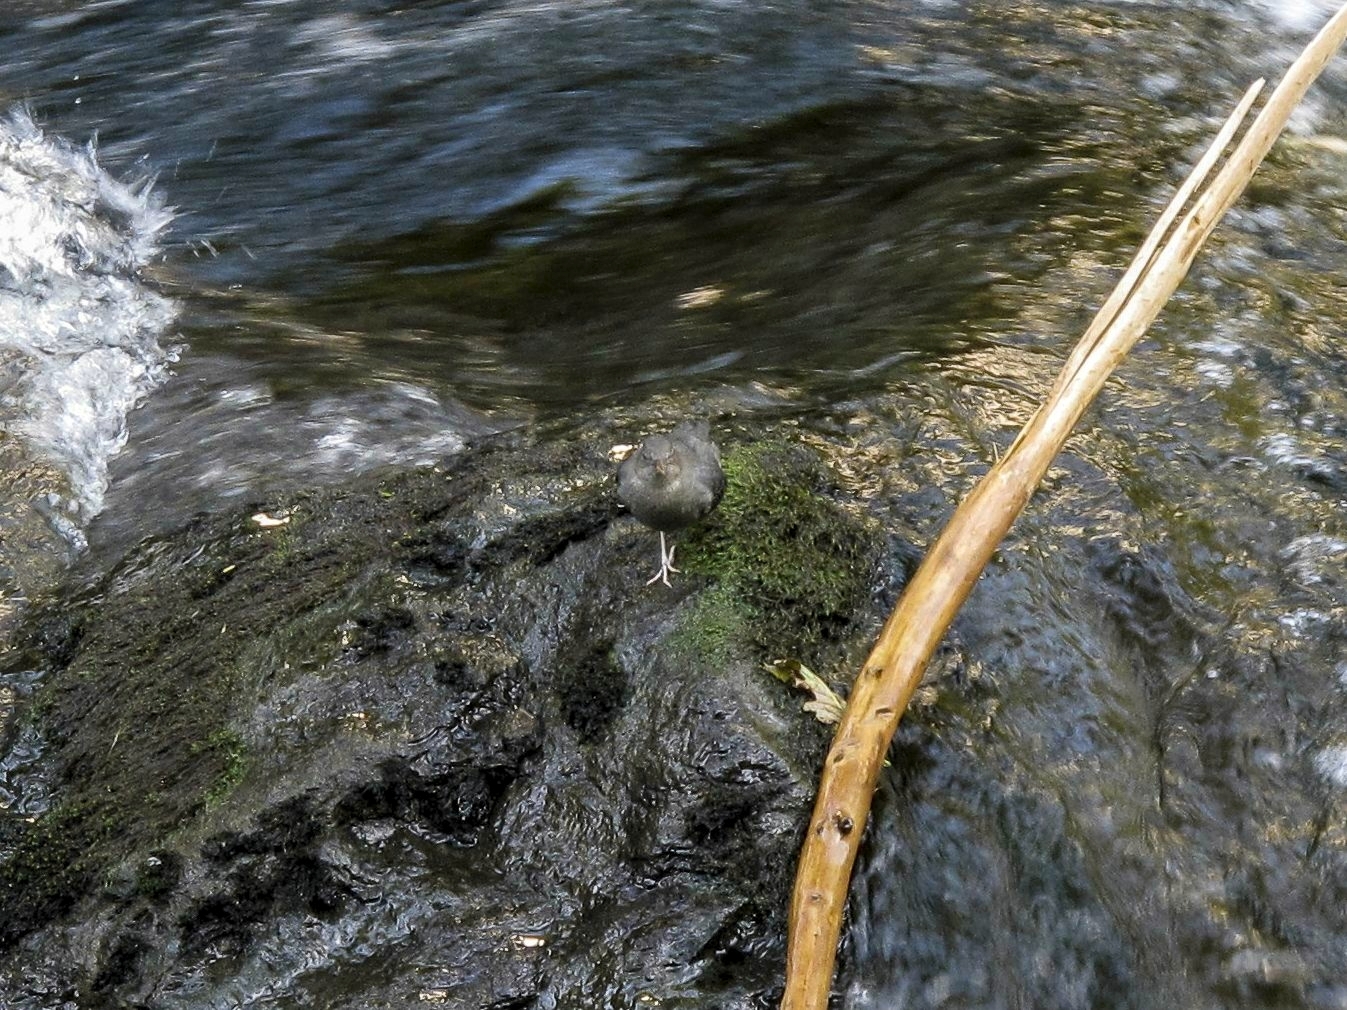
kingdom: Animalia
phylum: Chordata
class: Aves
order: Passeriformes
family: Cinclidae
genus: Cinclus
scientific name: Cinclus mexicanus
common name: American dipper
